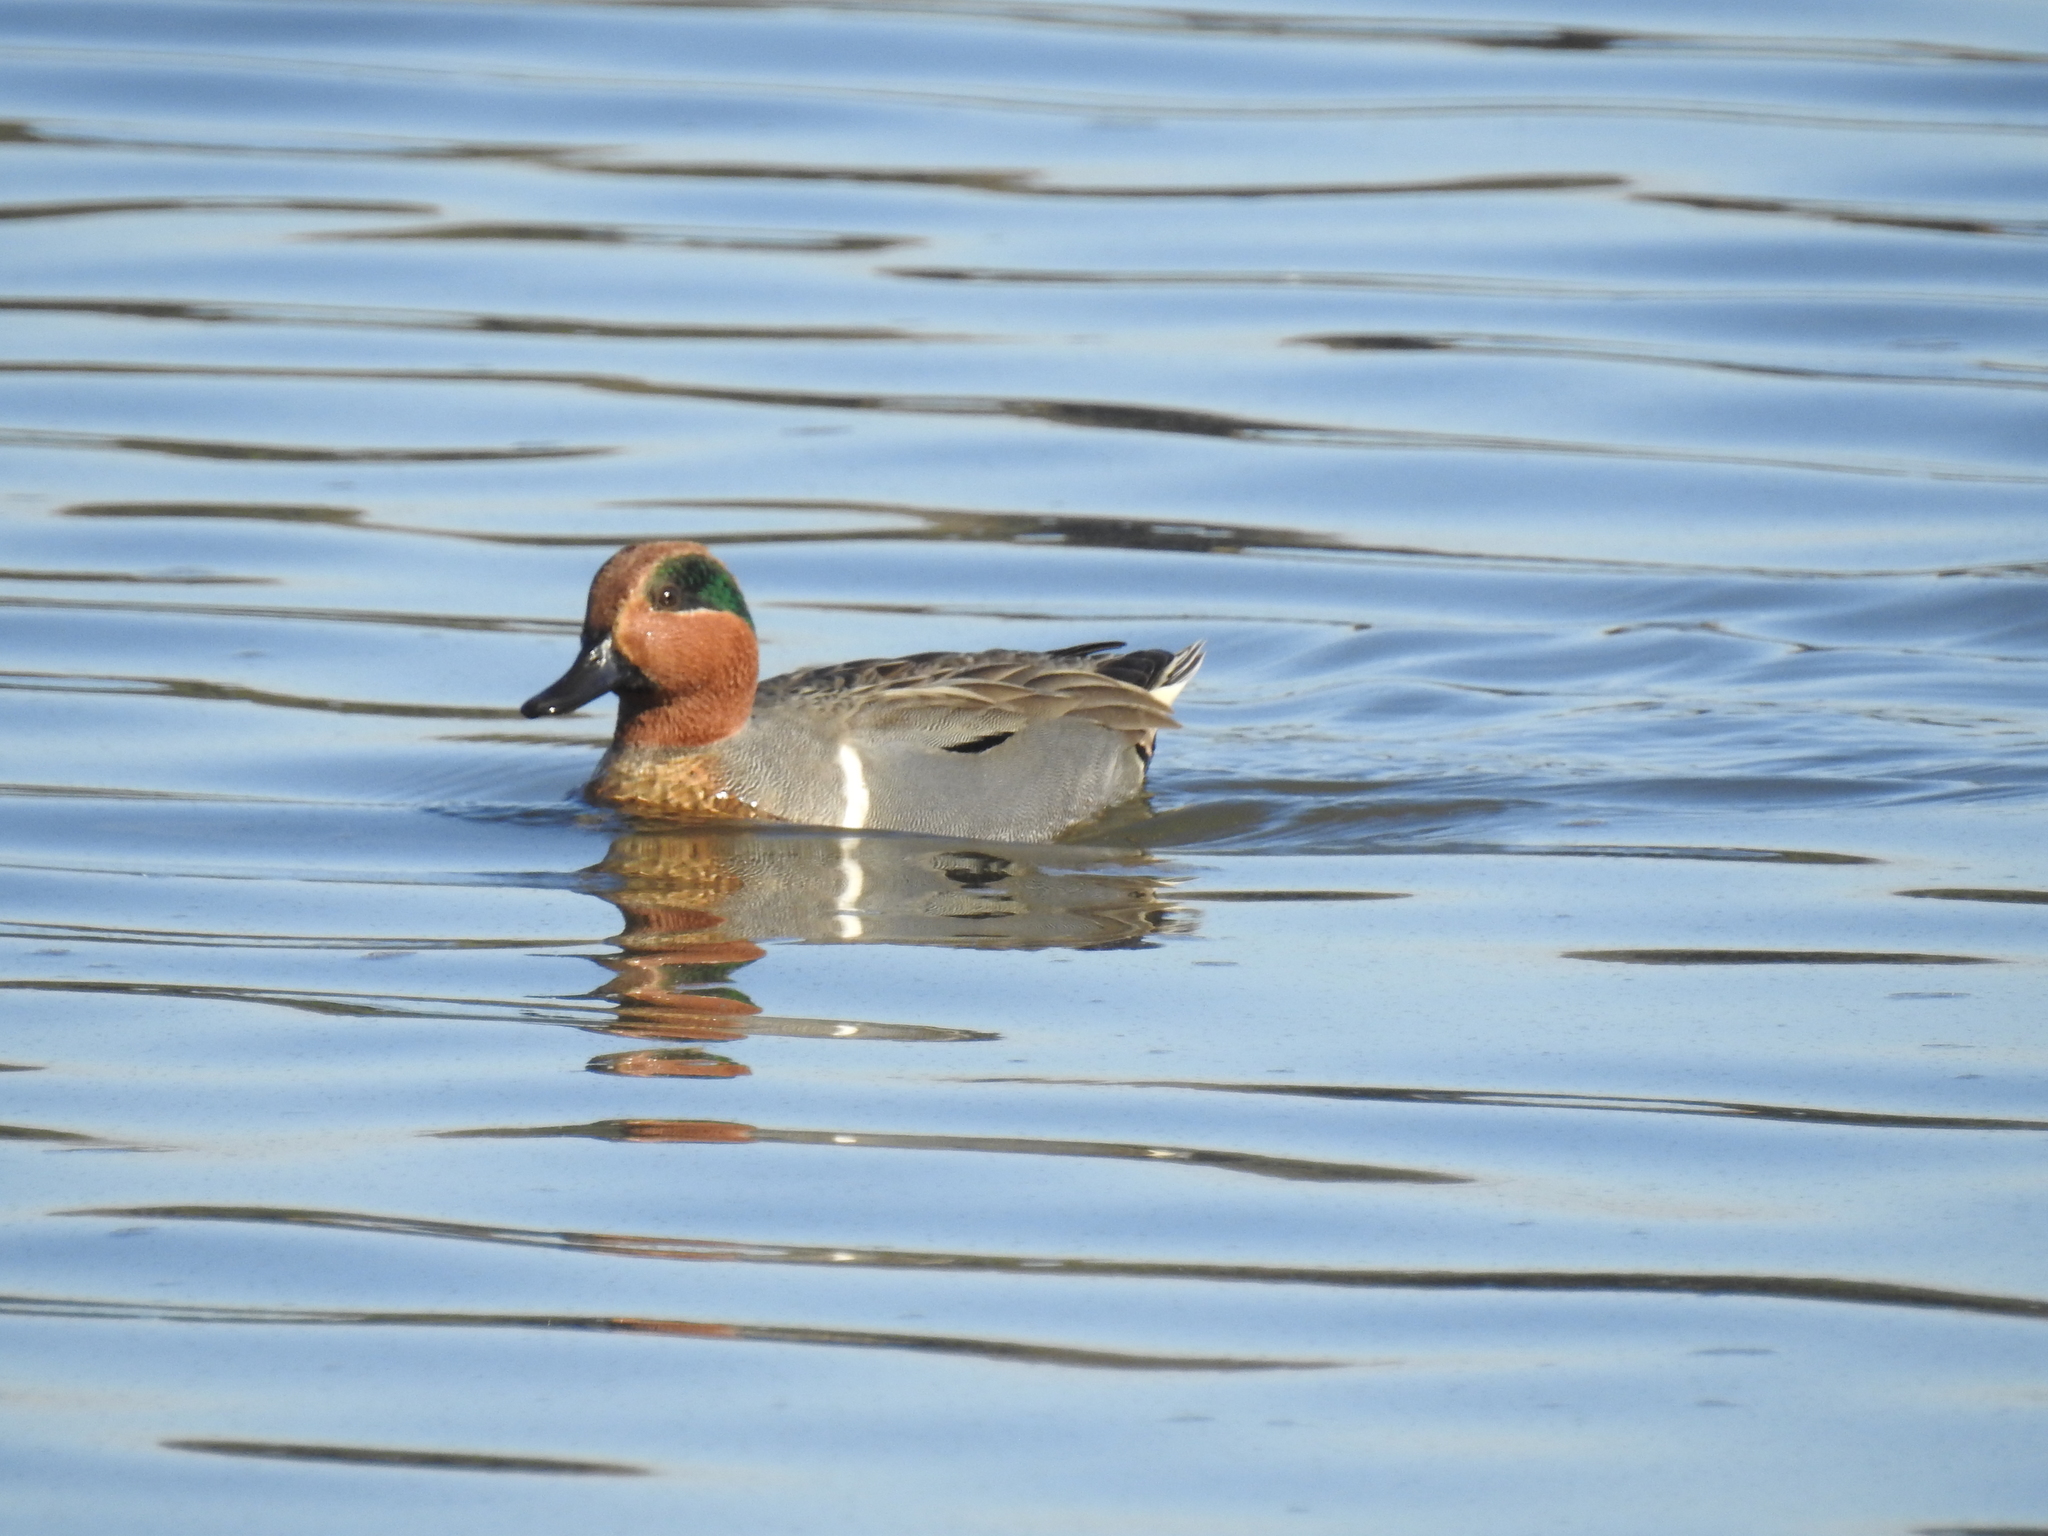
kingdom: Animalia
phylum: Chordata
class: Aves
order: Anseriformes
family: Anatidae
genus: Anas
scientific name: Anas crecca
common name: Eurasian teal
